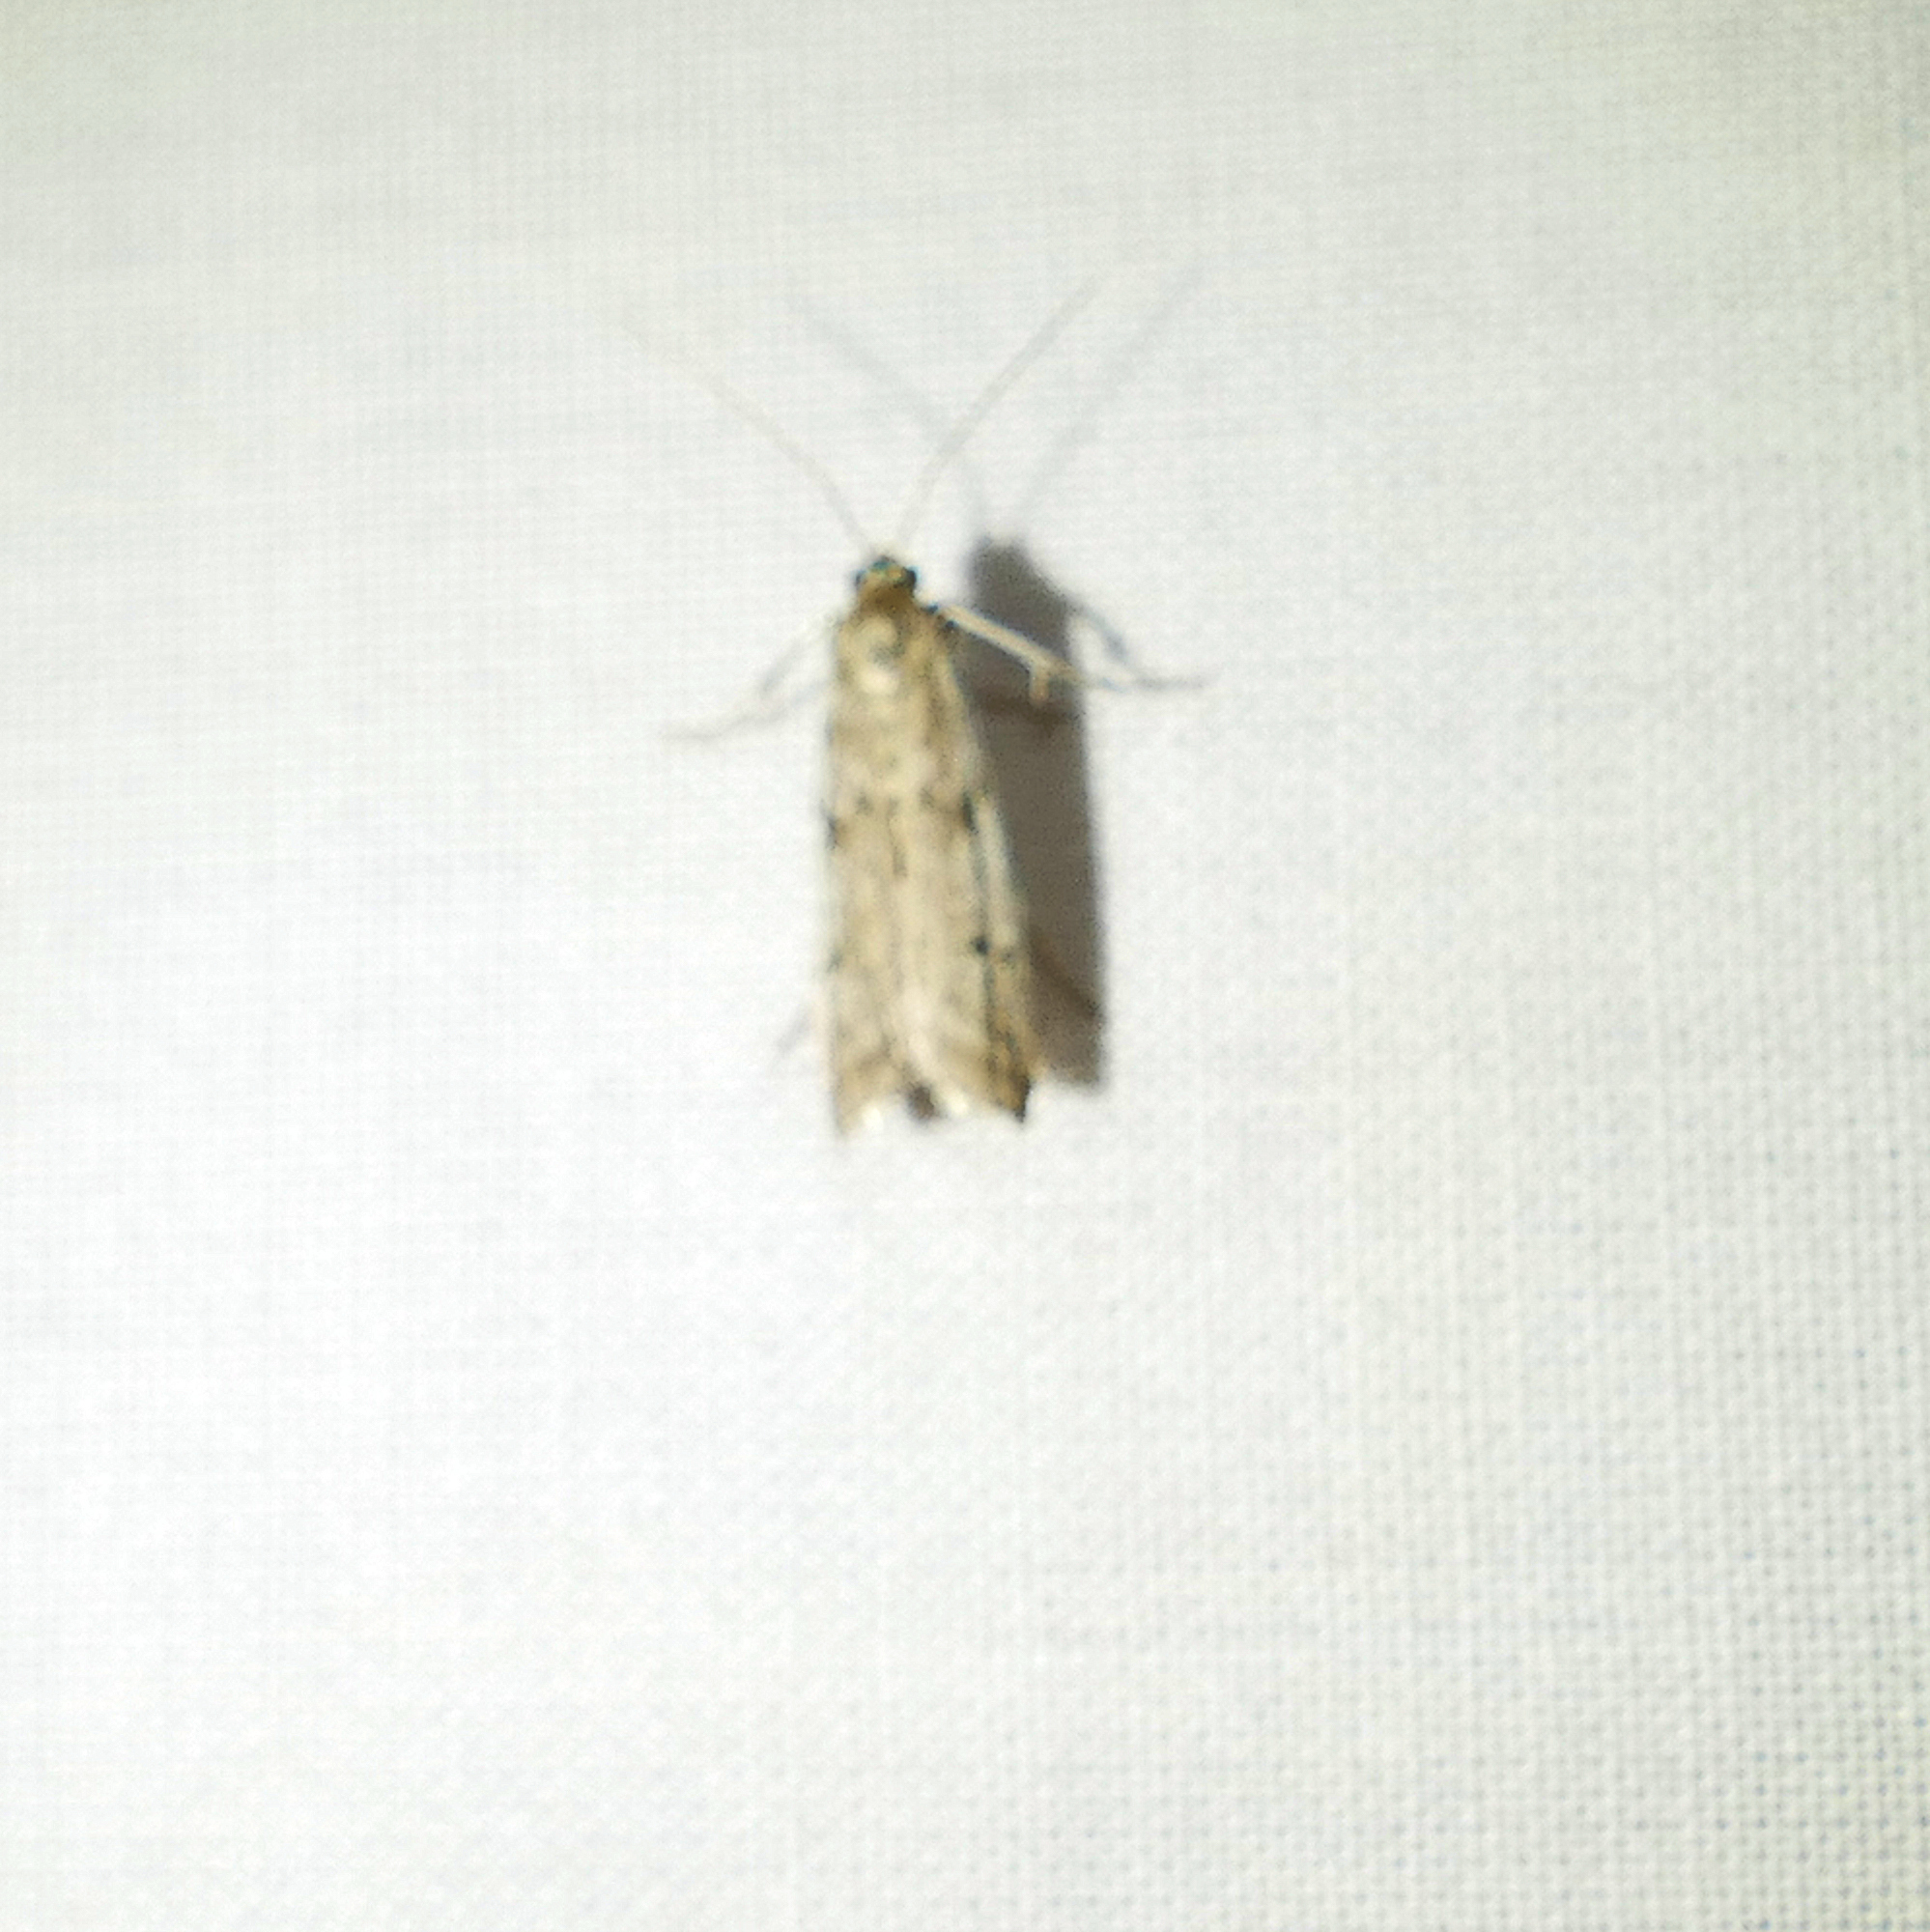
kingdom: Animalia
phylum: Arthropoda
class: Insecta
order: Lepidoptera
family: Pyralidae
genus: Phycitodes
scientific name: Phycitodes mucidellus
